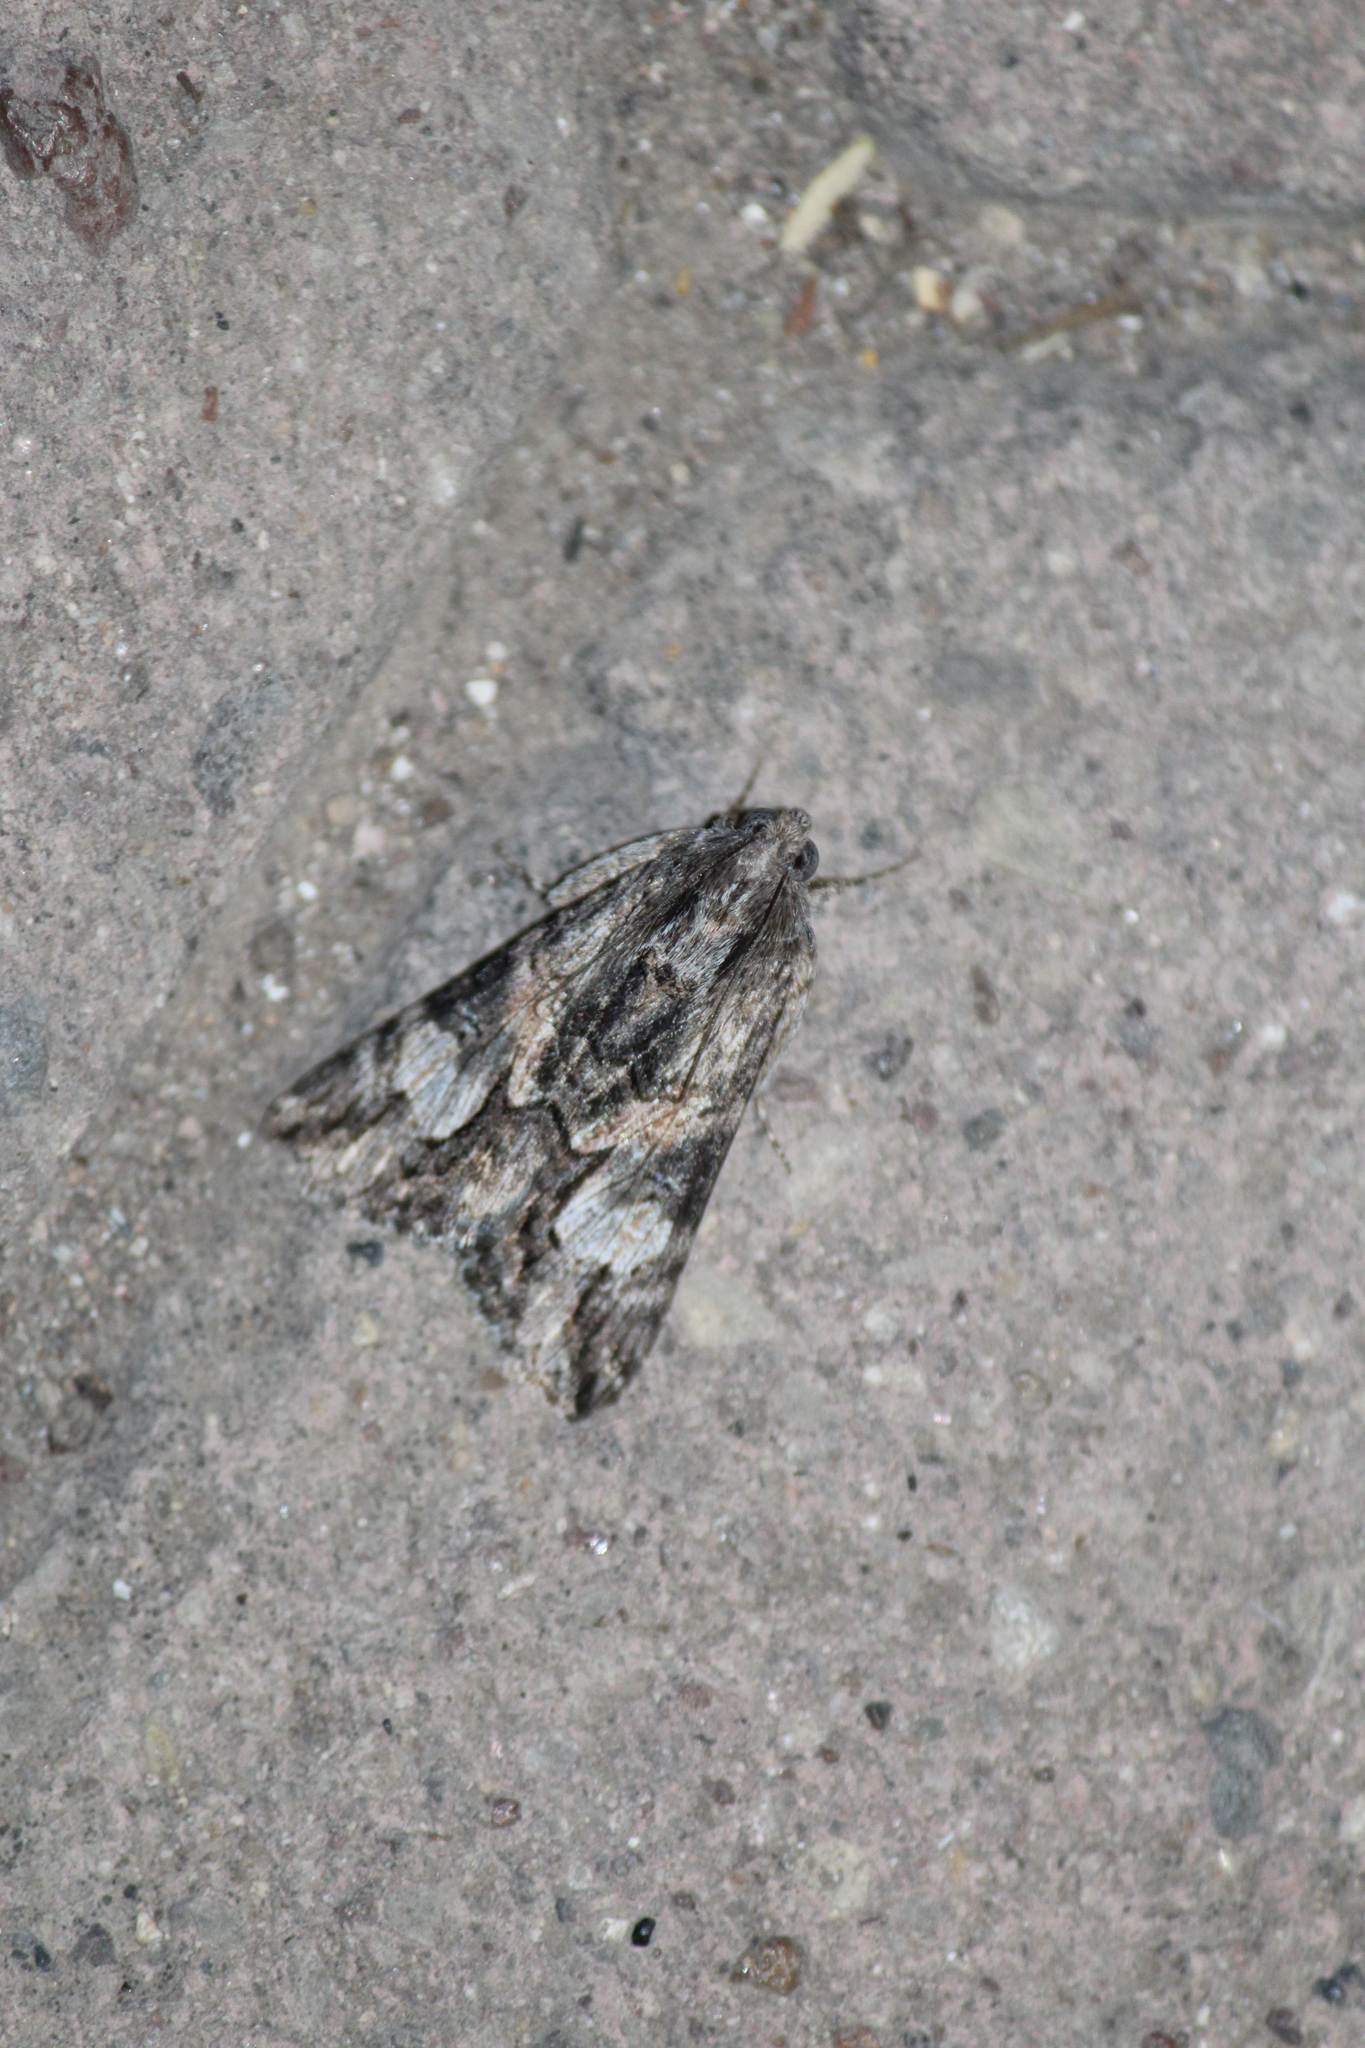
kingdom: Animalia
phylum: Arthropoda
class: Insecta
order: Lepidoptera
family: Erebidae
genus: Melipotis
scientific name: Melipotis jucunda
